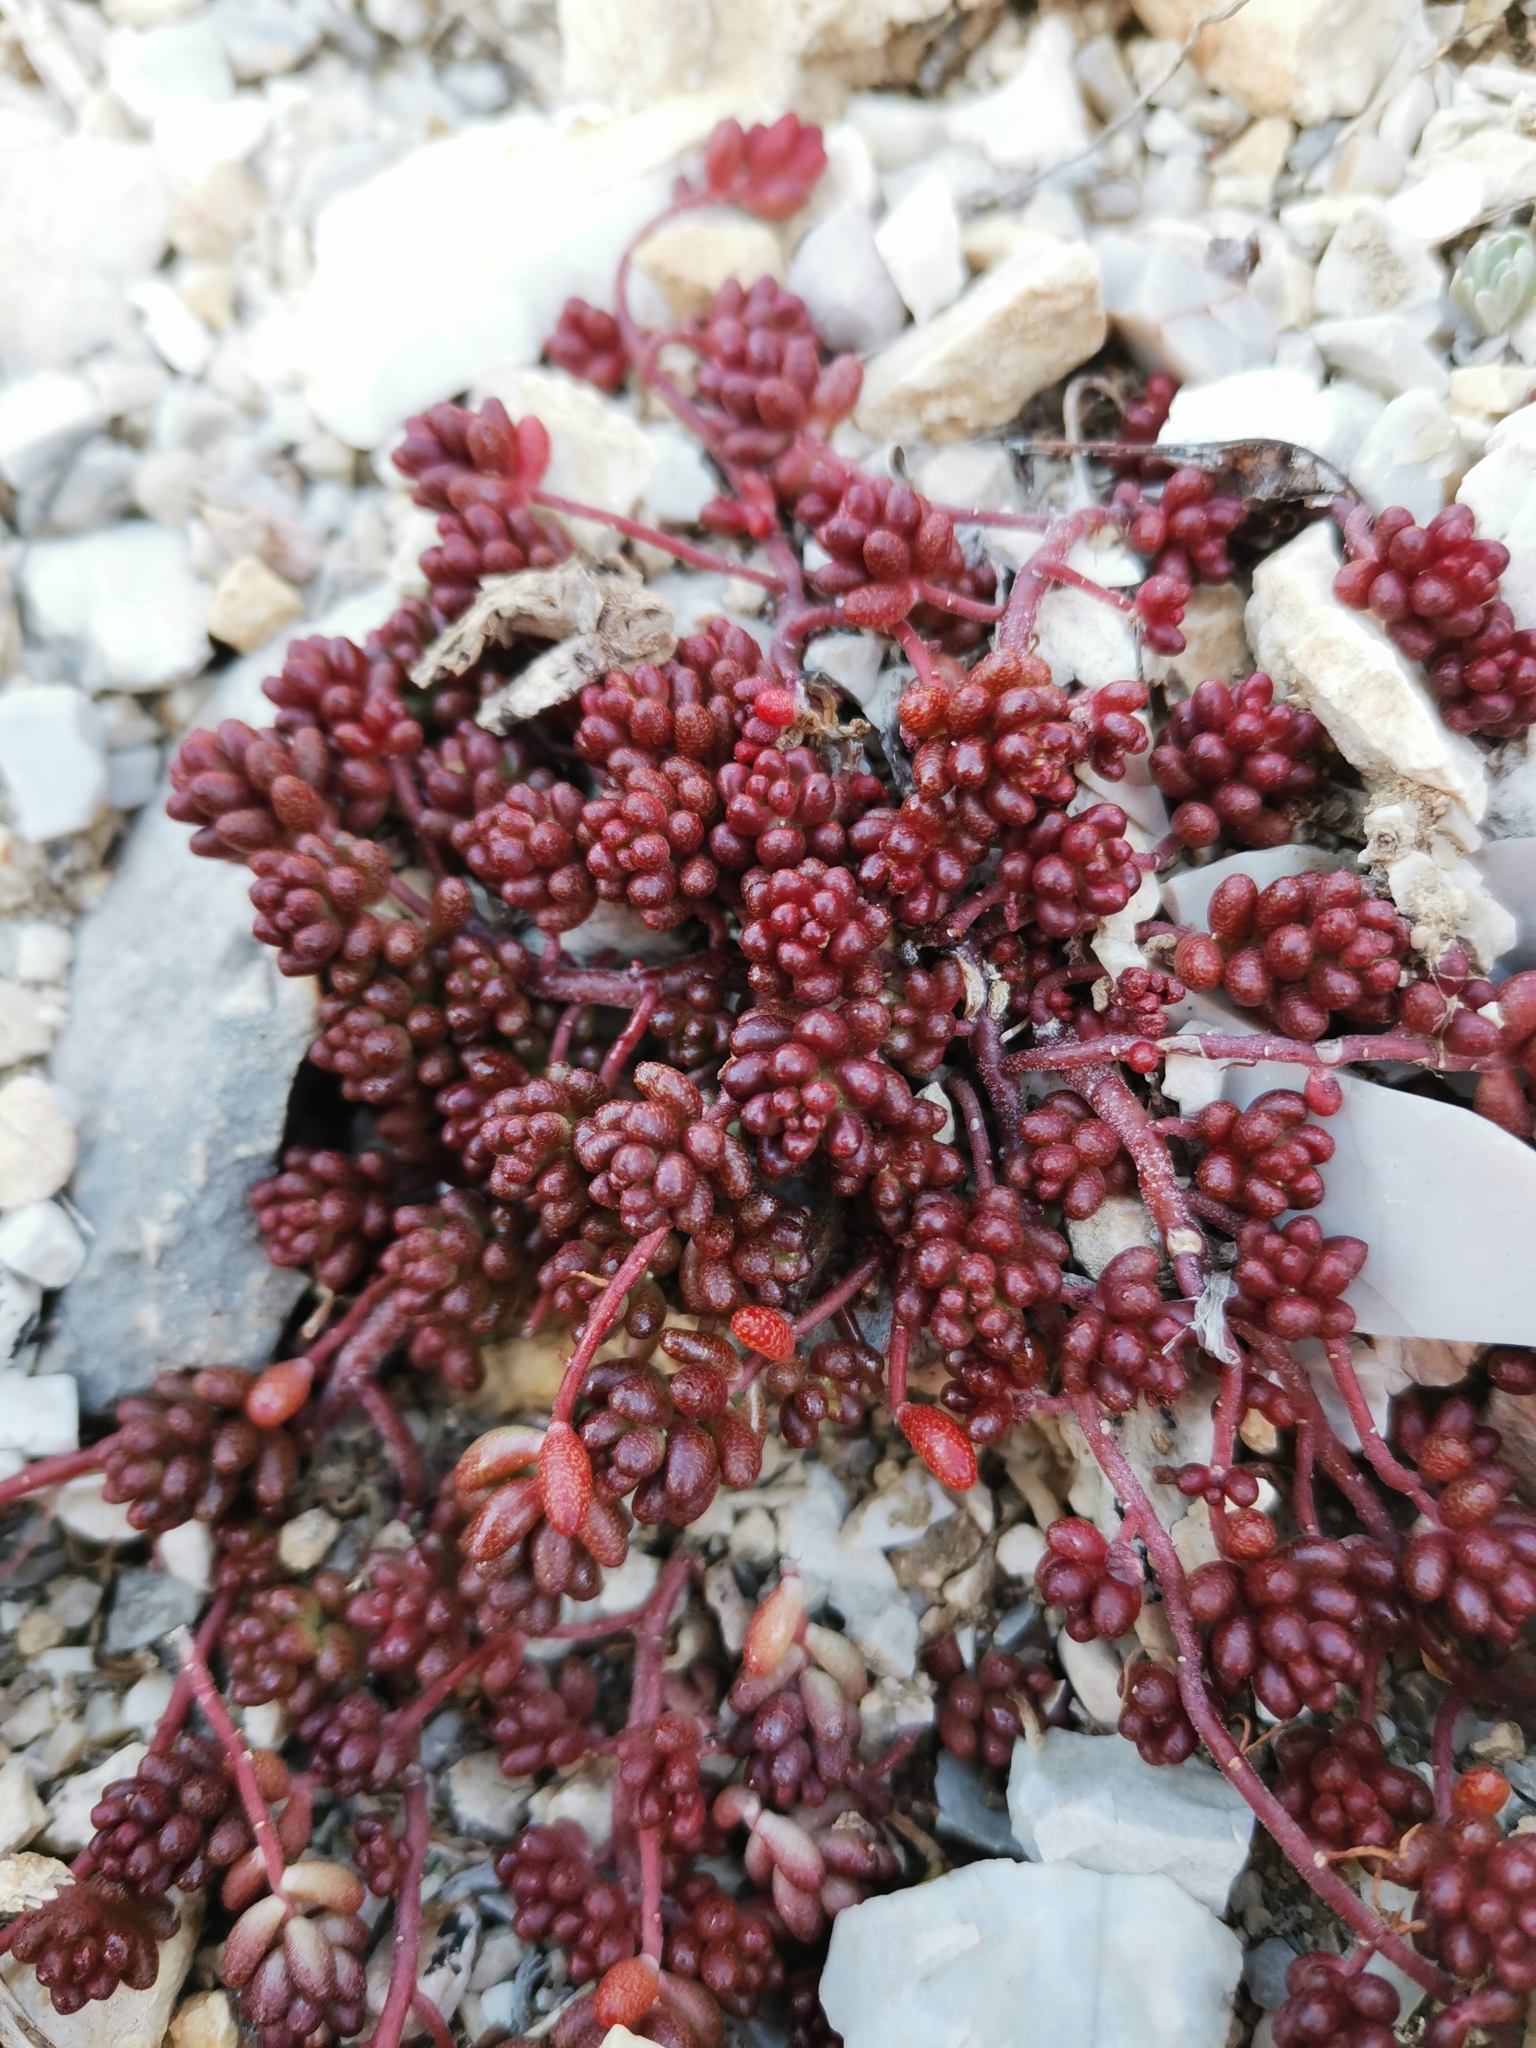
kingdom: Plantae
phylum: Tracheophyta
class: Magnoliopsida
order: Saxifragales
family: Crassulaceae
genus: Sedum
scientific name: Sedum album
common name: White stonecrop
